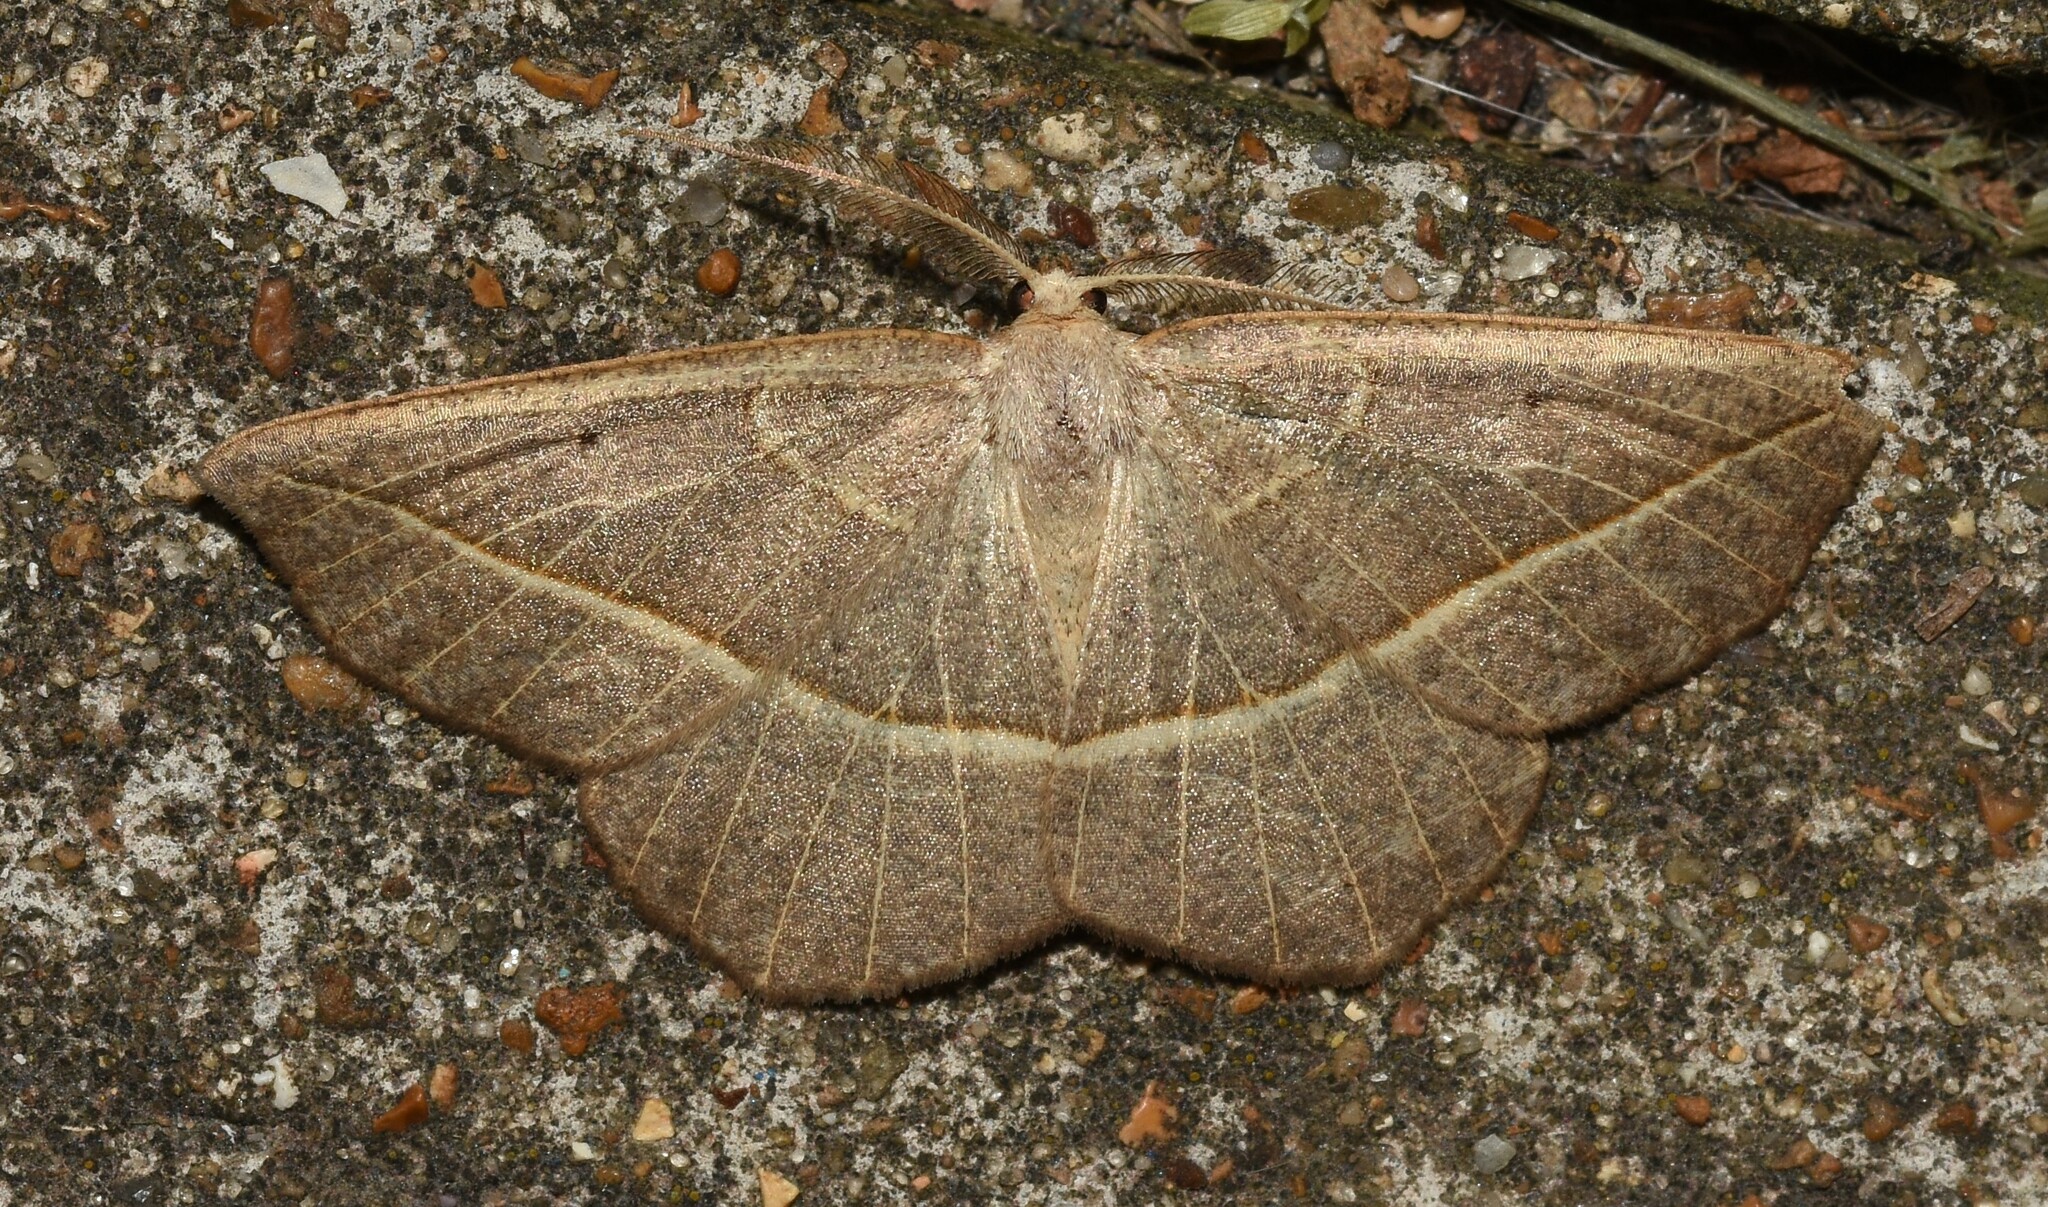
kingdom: Animalia
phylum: Arthropoda
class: Insecta
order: Lepidoptera
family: Geometridae
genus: Eusarca
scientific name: Eusarca confusaria
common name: Confused eusarca
